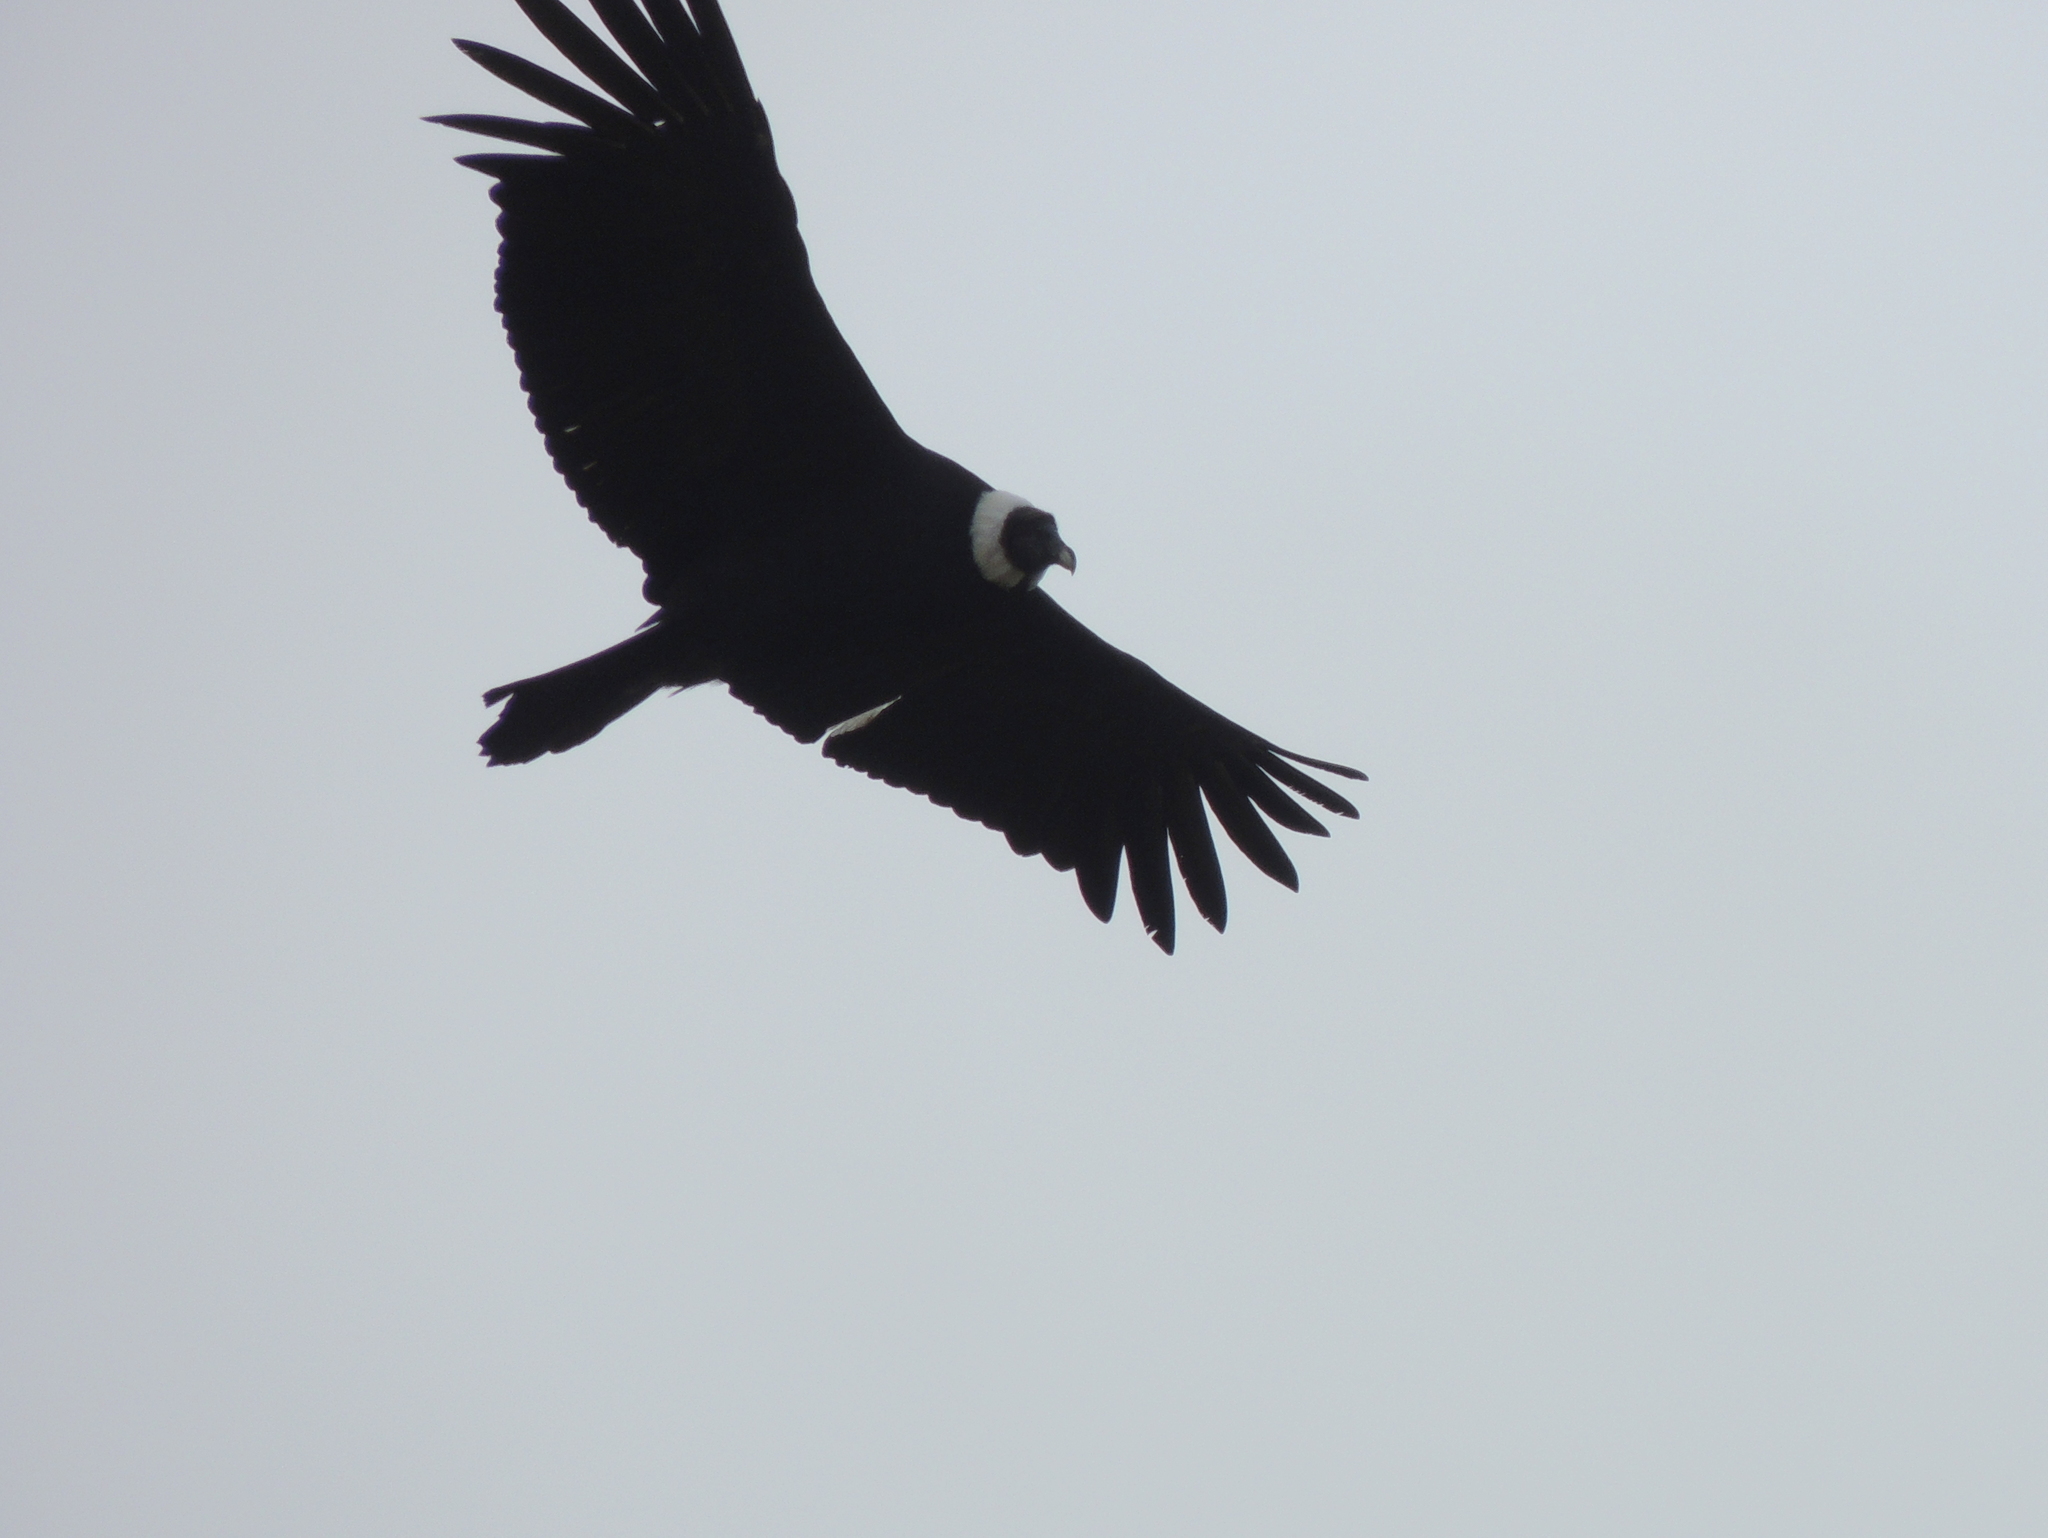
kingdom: Animalia
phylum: Chordata
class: Aves
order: Accipitriformes
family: Cathartidae
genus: Vultur
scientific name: Vultur gryphus
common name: Andean condor
